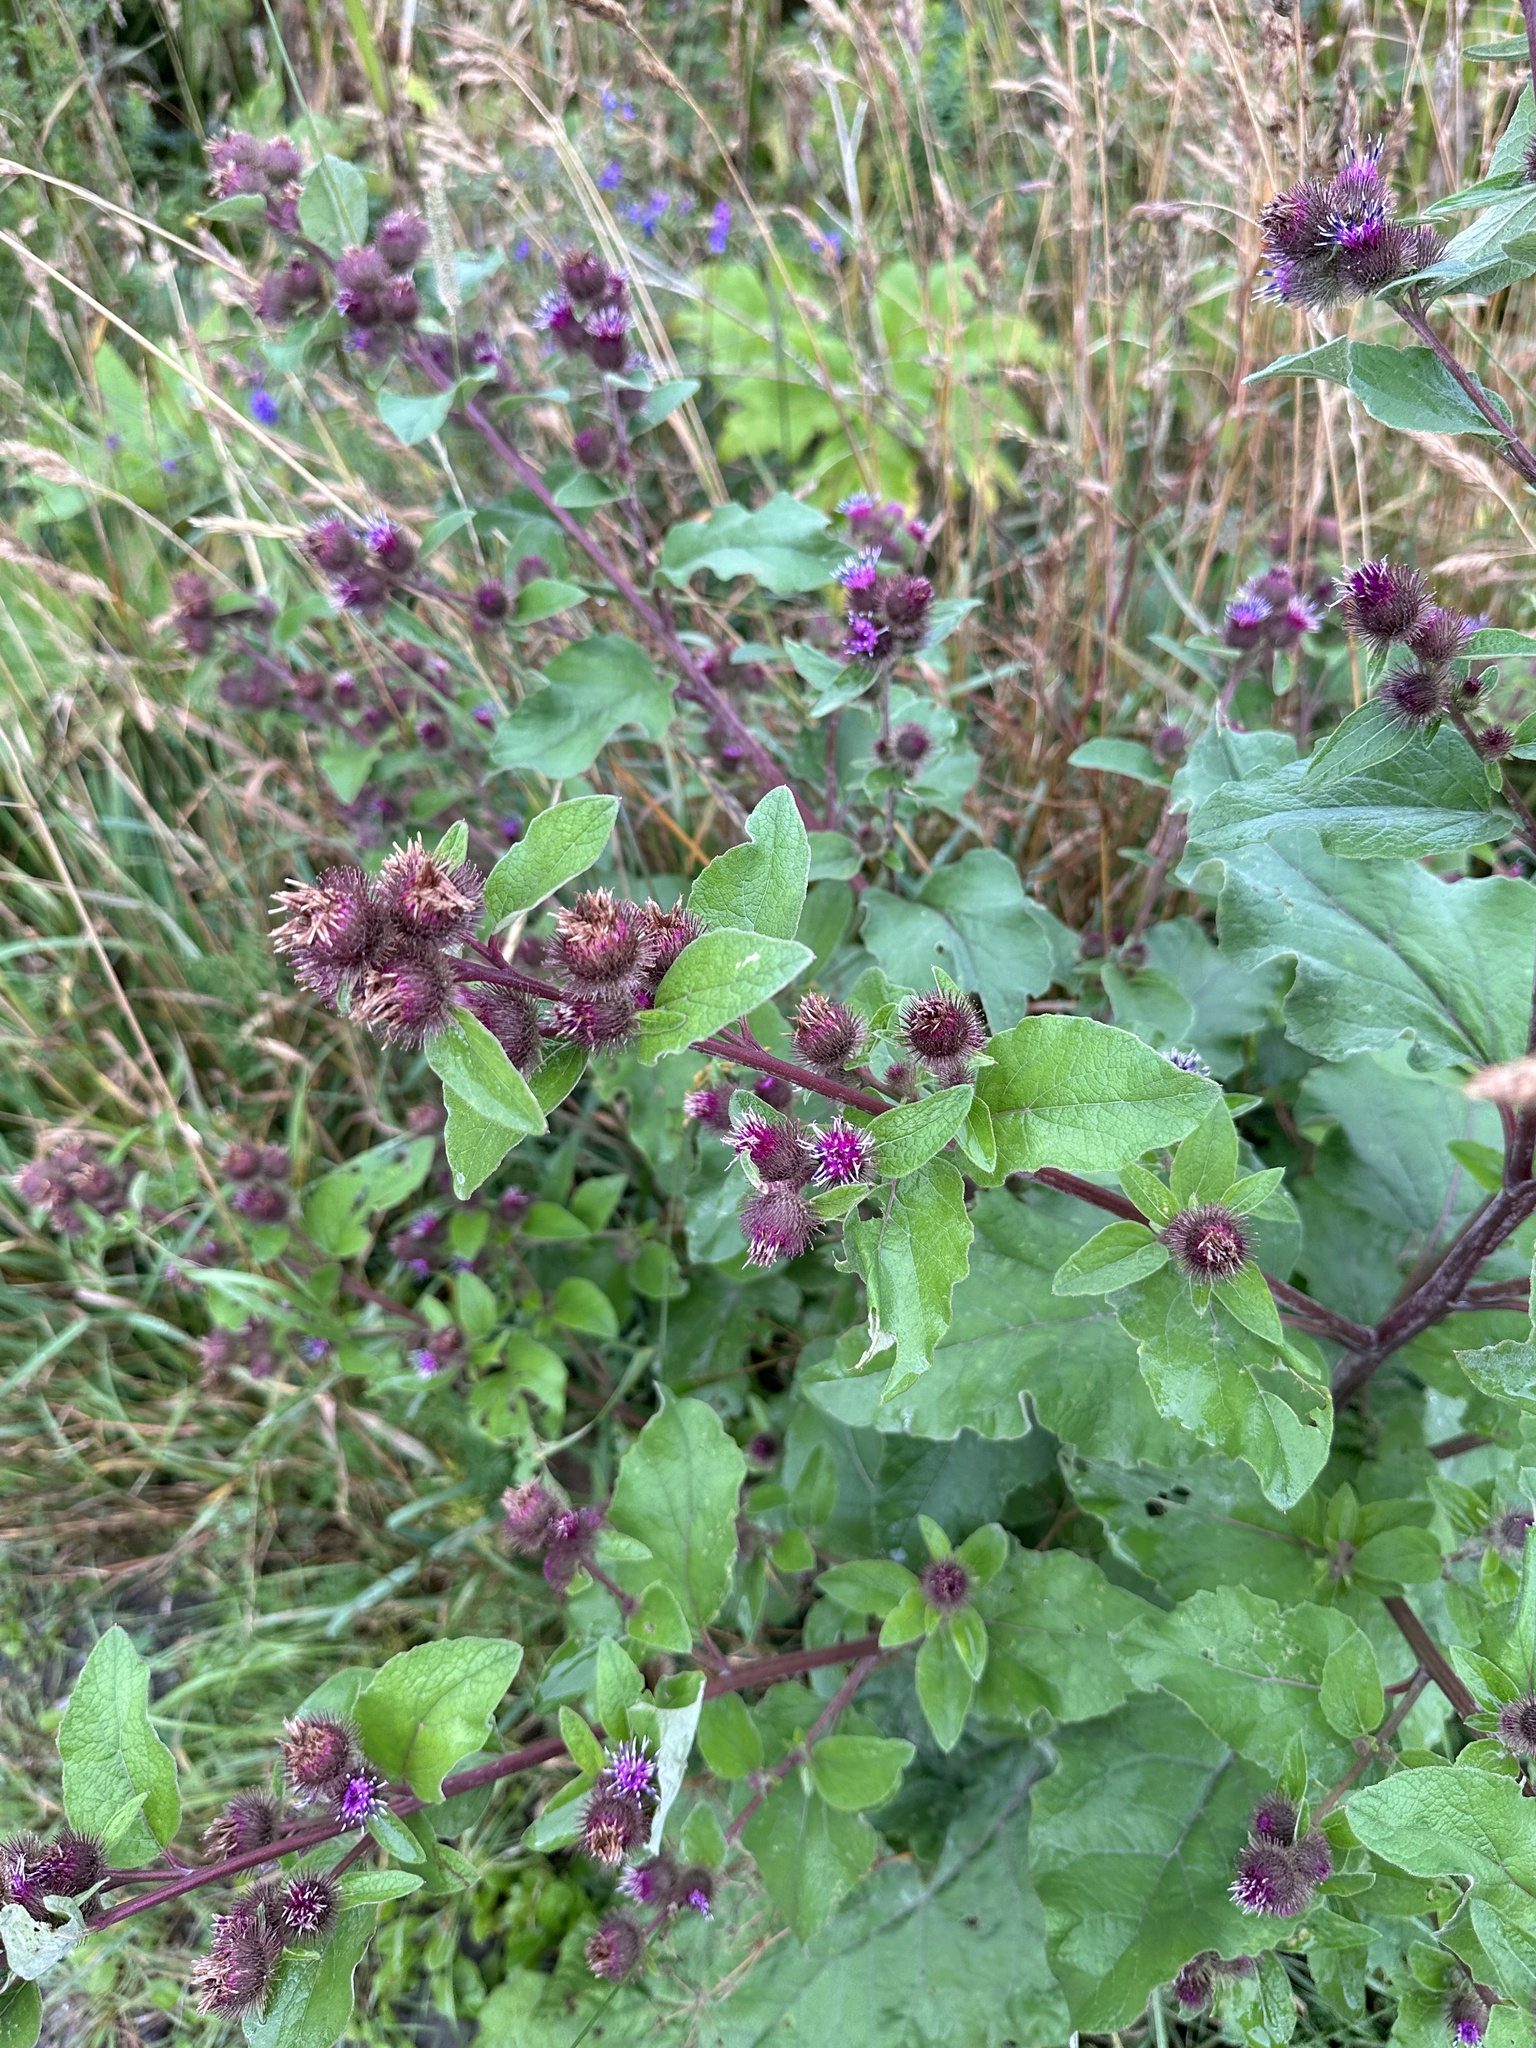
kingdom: Plantae
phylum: Tracheophyta
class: Magnoliopsida
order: Asterales
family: Asteraceae
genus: Arctium
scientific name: Arctium minus
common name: Lesser burdock
